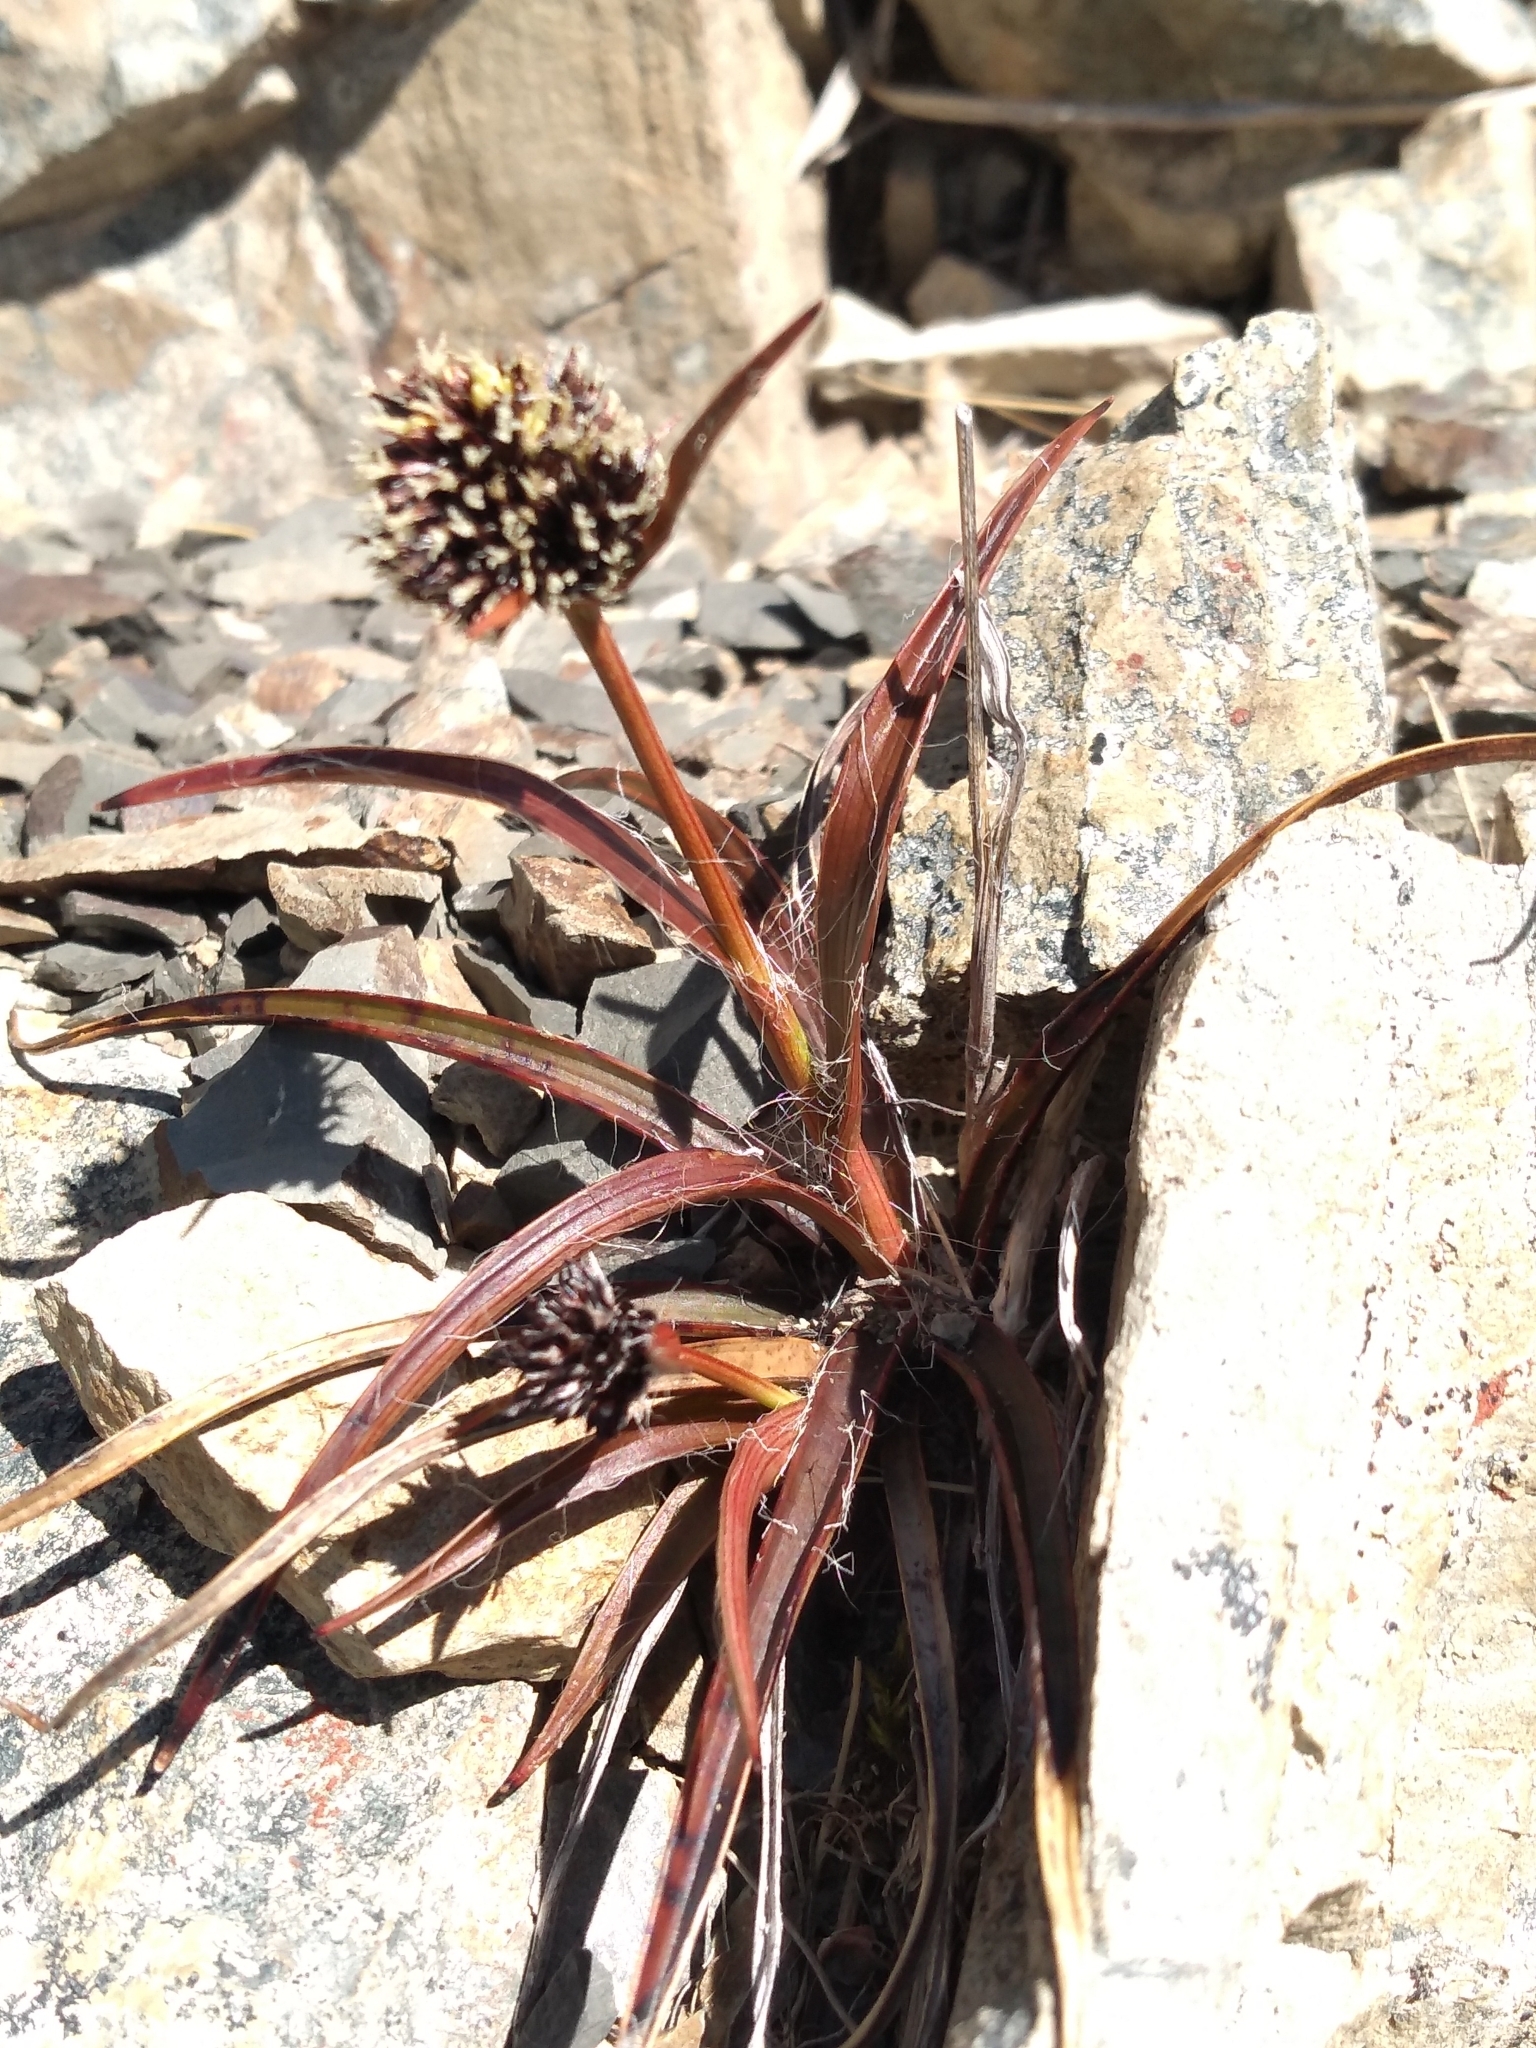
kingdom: Plantae
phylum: Tracheophyta
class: Liliopsida
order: Poales
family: Juncaceae
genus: Luzula
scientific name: Luzula rufa
